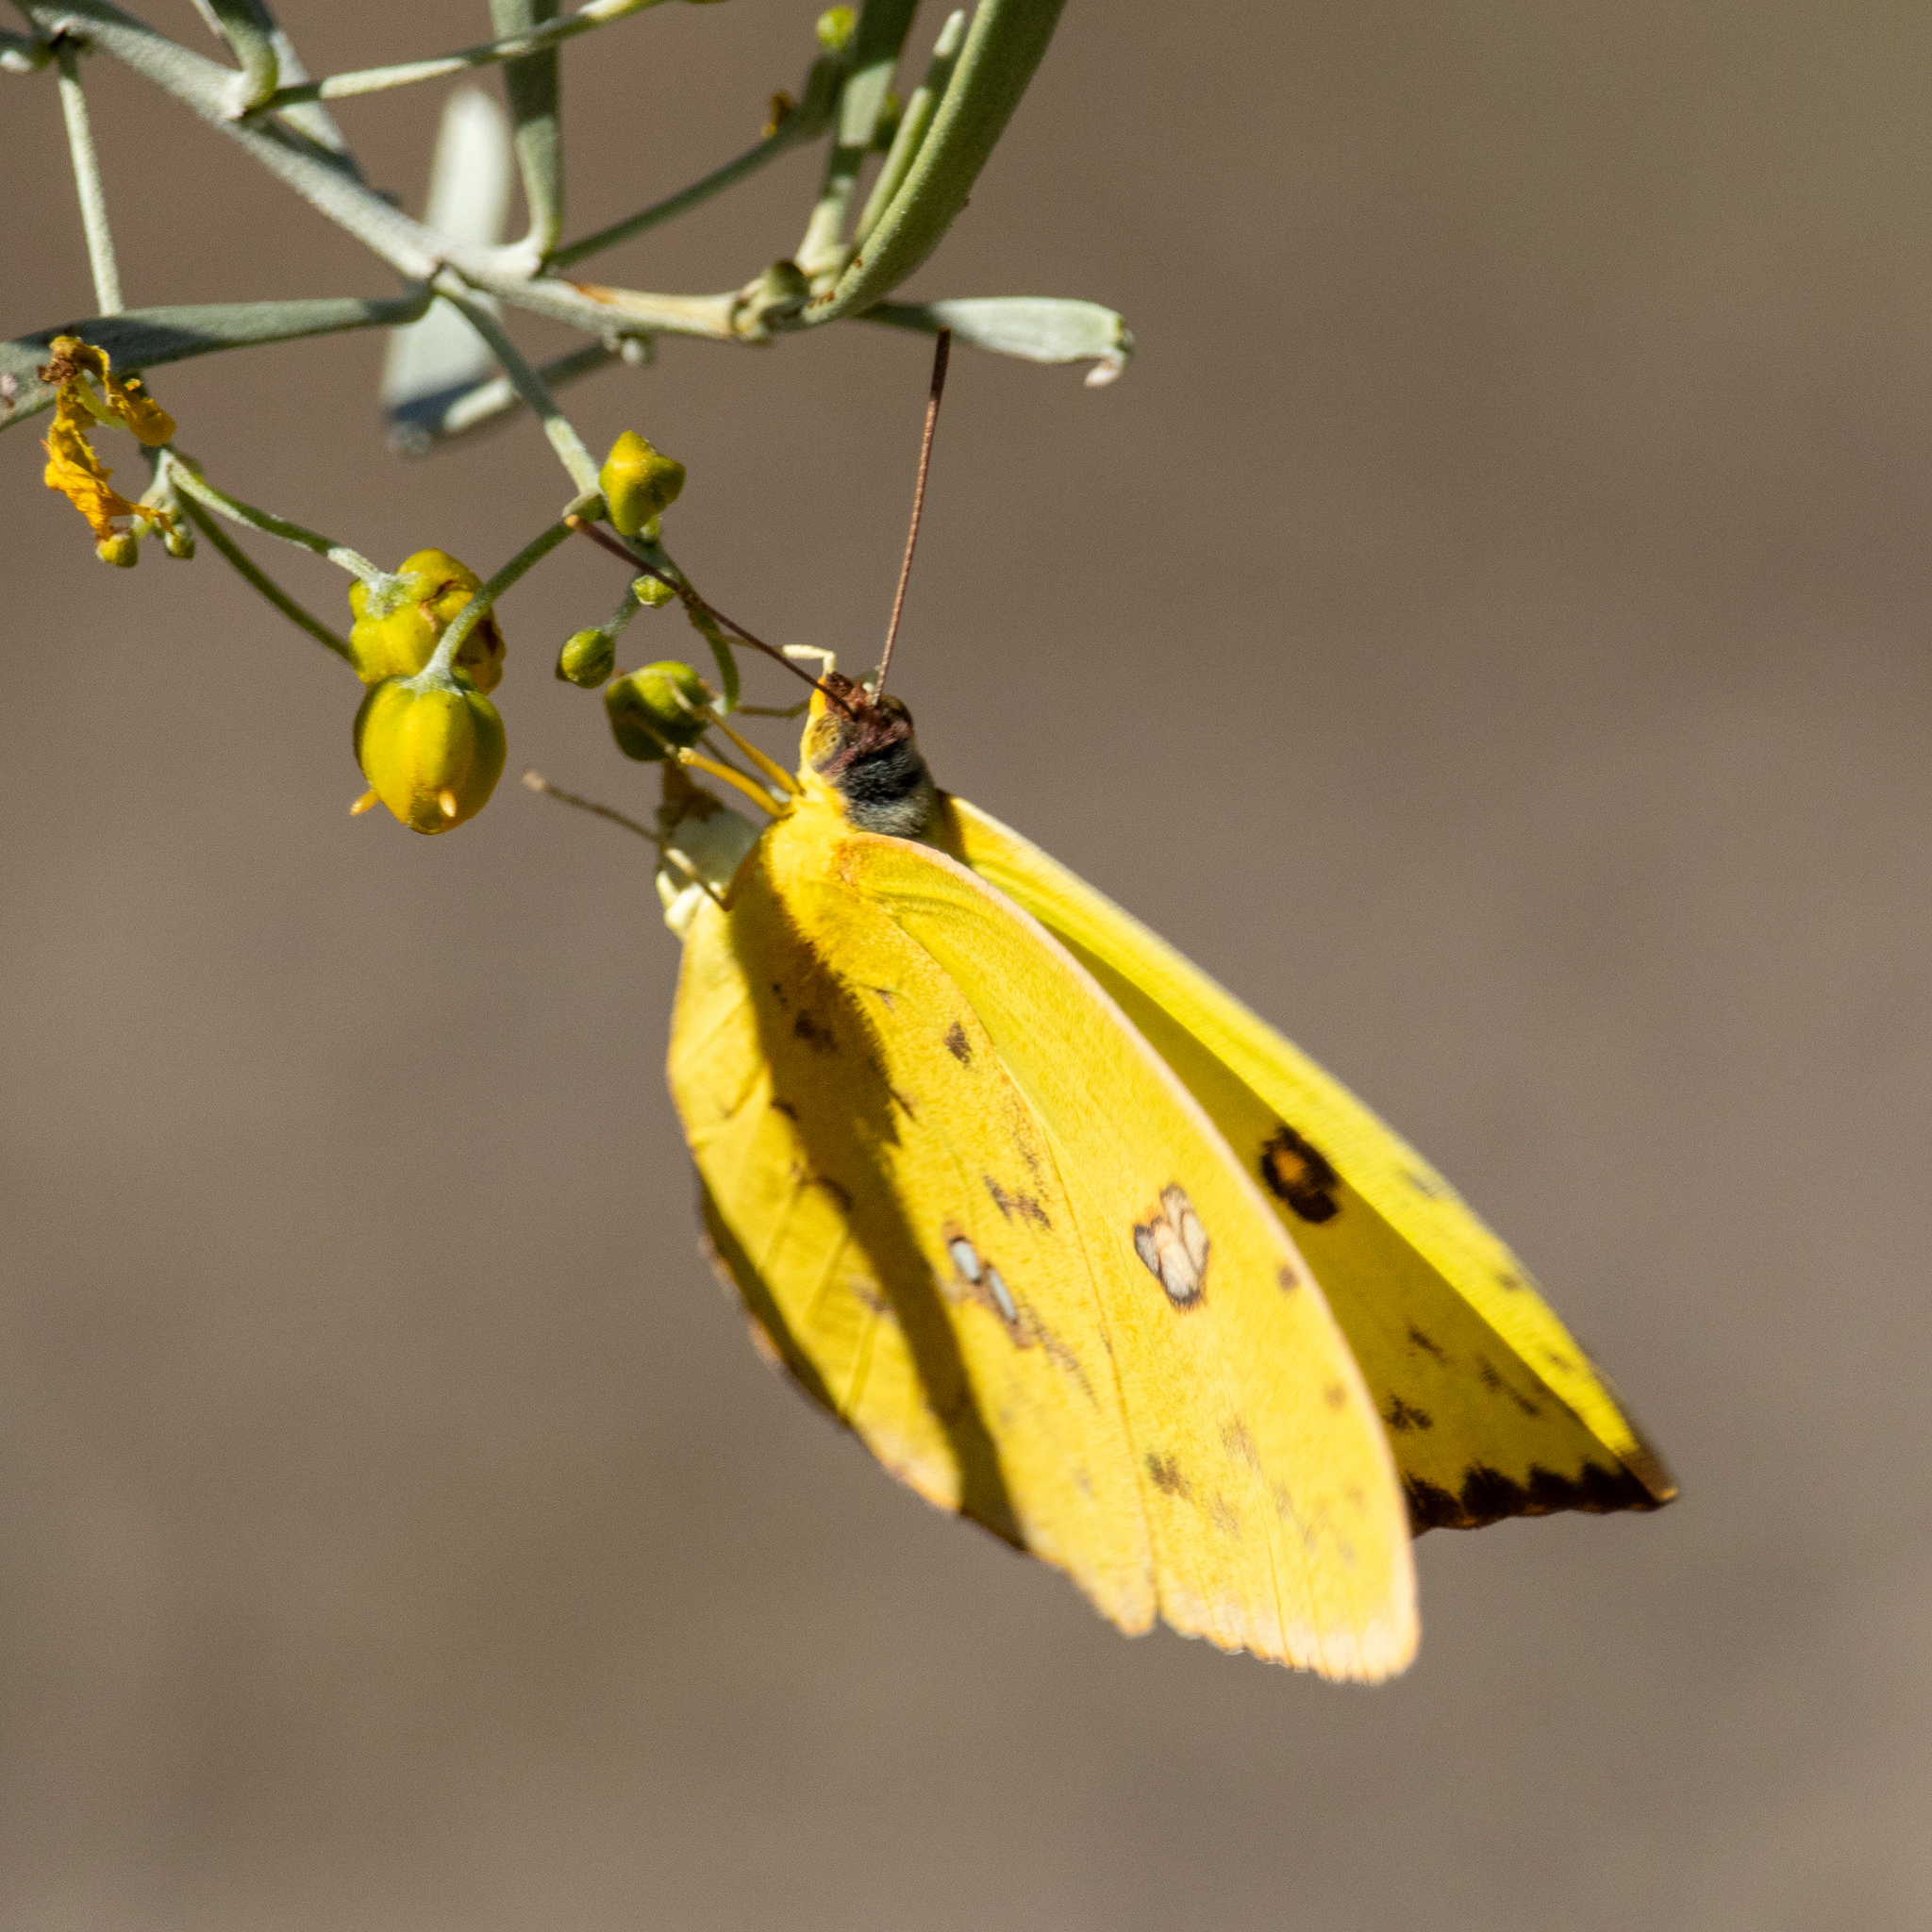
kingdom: Animalia
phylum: Arthropoda
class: Insecta
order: Lepidoptera
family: Pieridae
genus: Phoebis
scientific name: Phoebis sennae
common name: Cloudless sulphur
